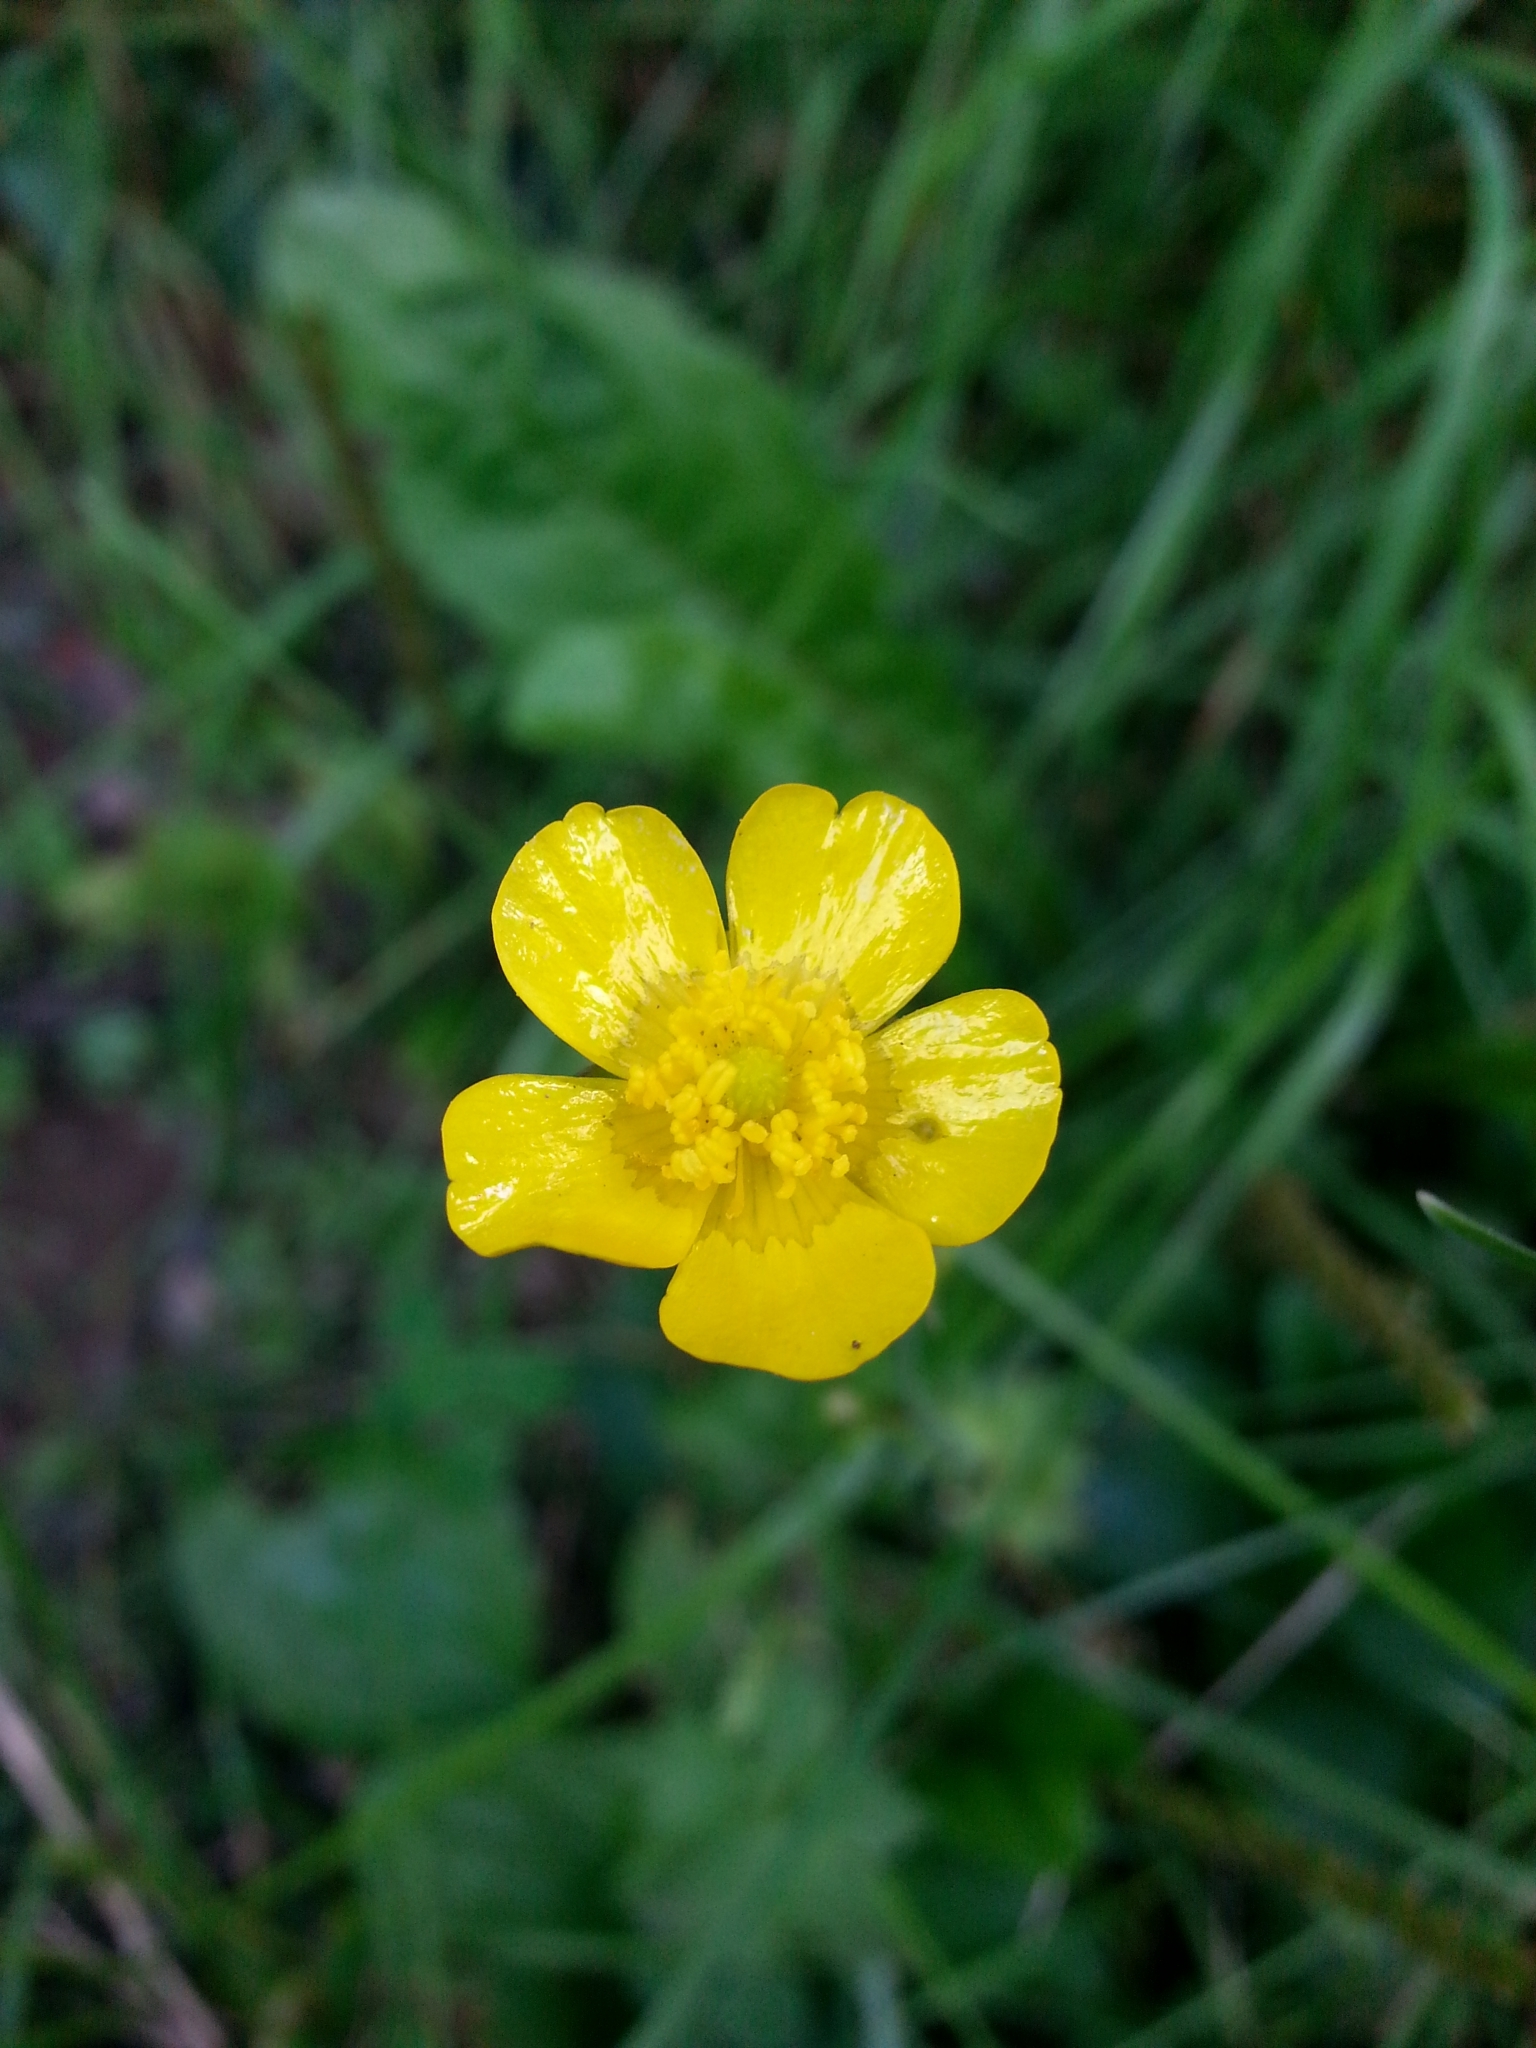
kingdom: Plantae
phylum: Tracheophyta
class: Magnoliopsida
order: Ranunculales
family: Ranunculaceae
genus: Ranunculus
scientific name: Ranunculus acris
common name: Meadow buttercup
